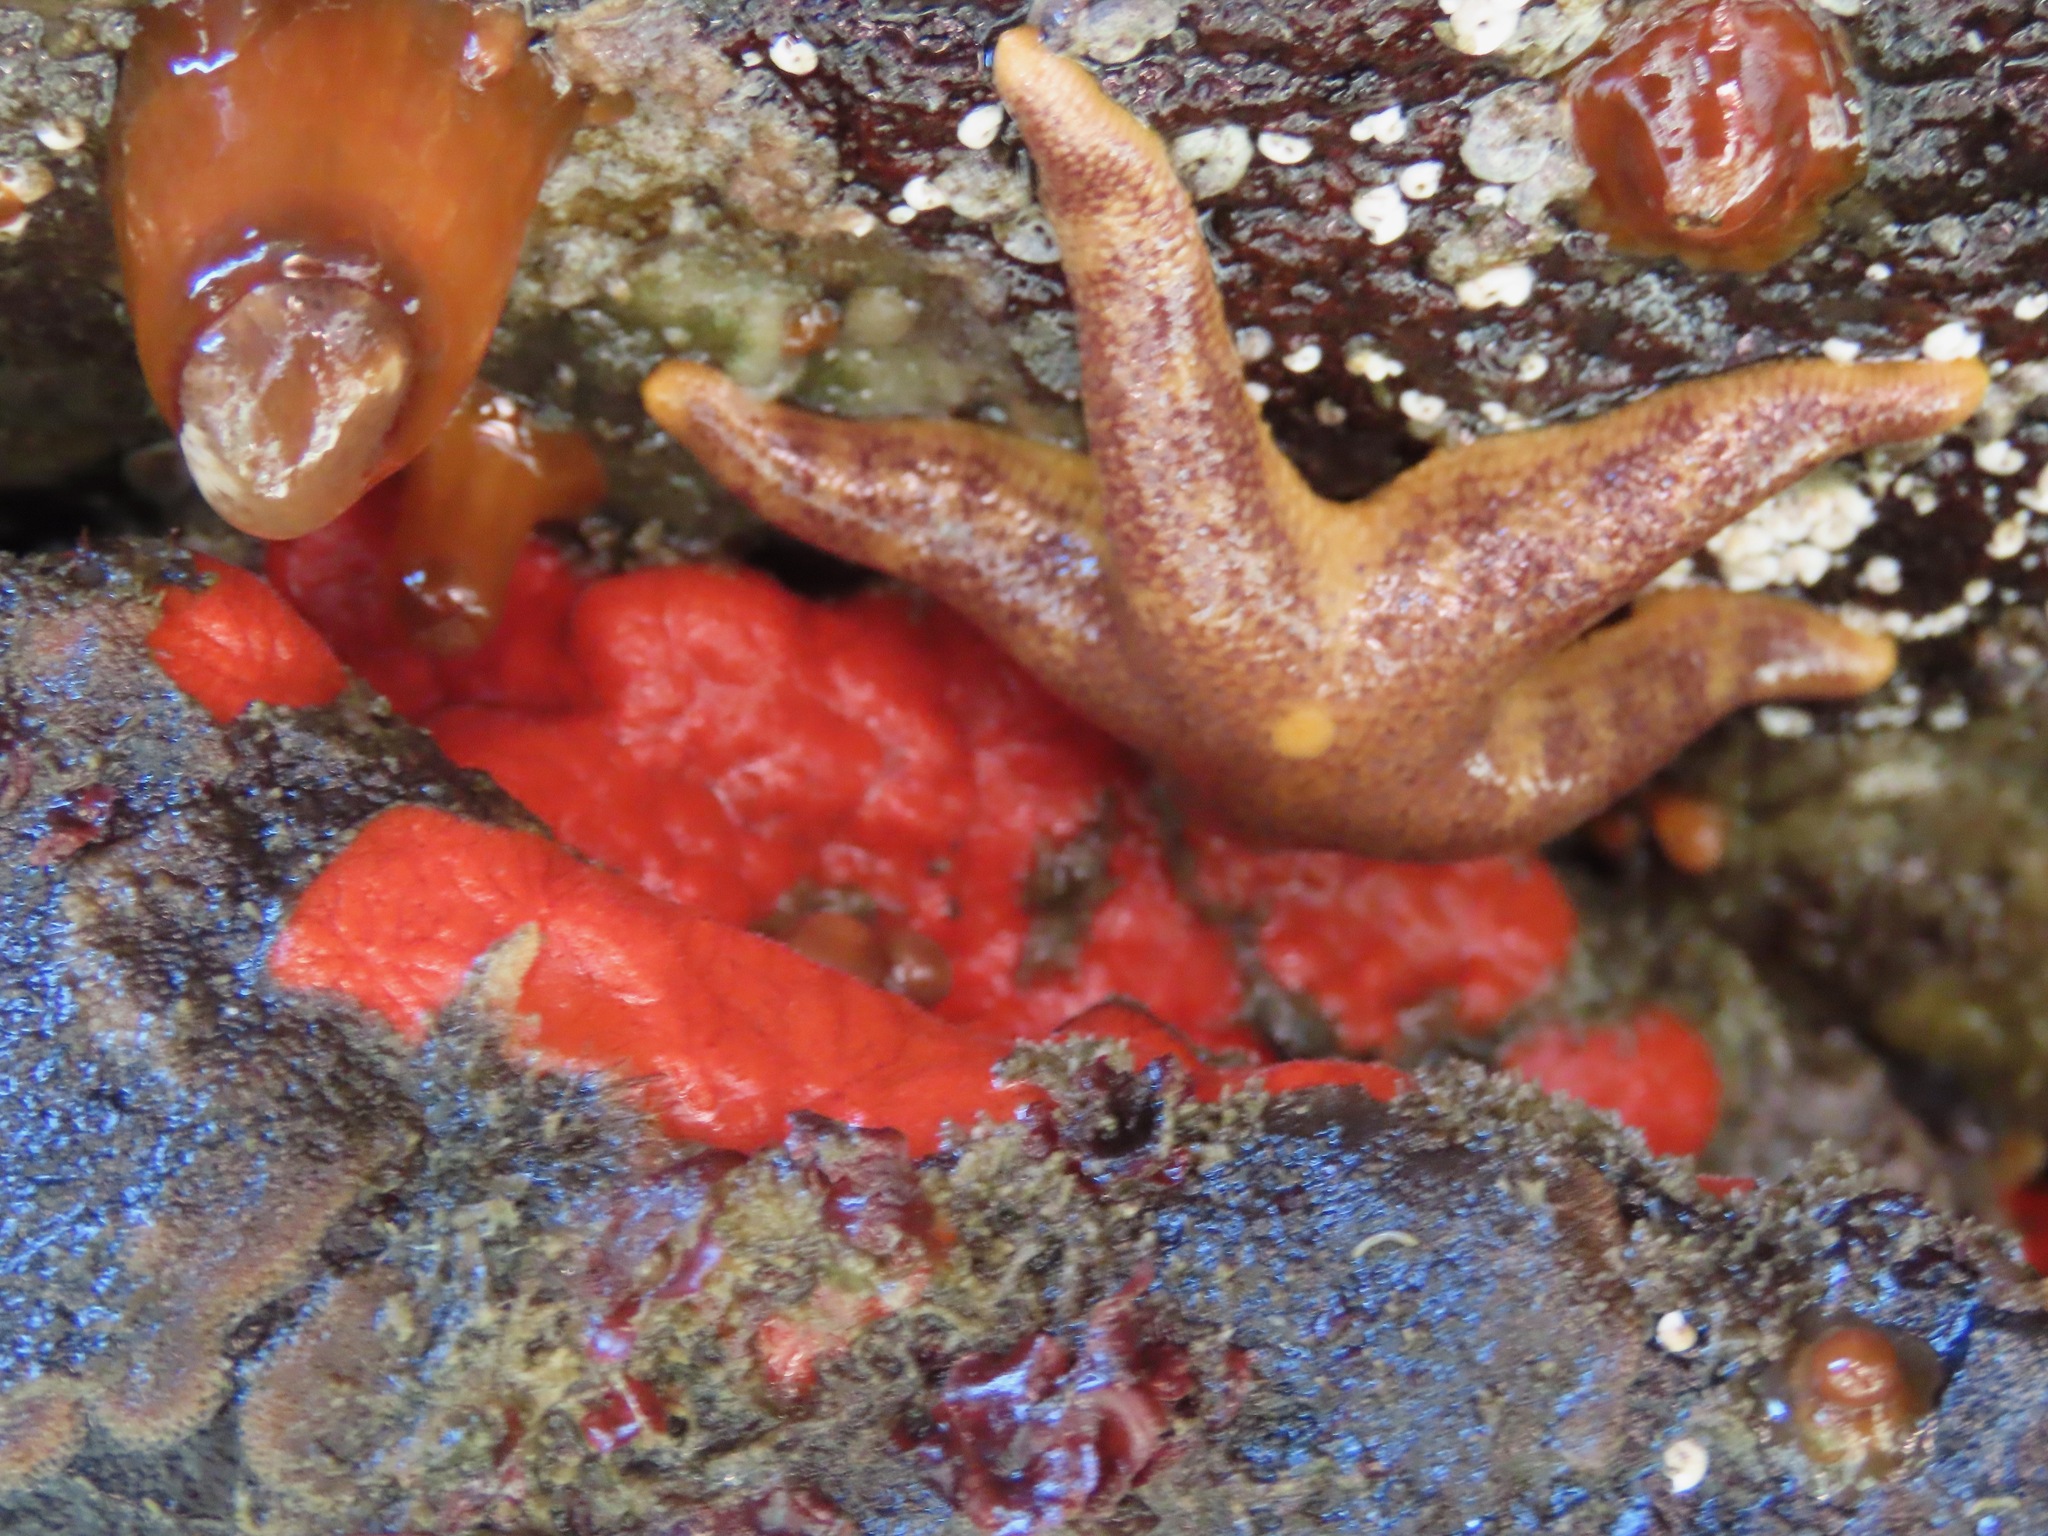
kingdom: Animalia
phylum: Echinodermata
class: Asteroidea
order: Spinulosida
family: Echinasteridae
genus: Henricia
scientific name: Henricia pumila
